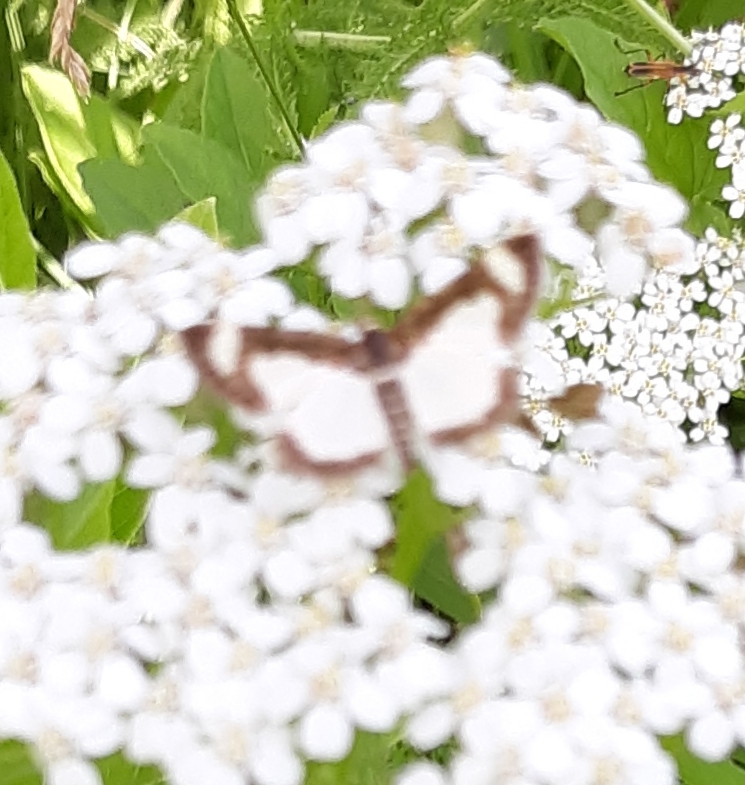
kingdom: Animalia
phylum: Arthropoda
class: Insecta
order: Lepidoptera
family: Geometridae
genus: Heliomata
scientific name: Heliomata cycladata
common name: Common spring moth
